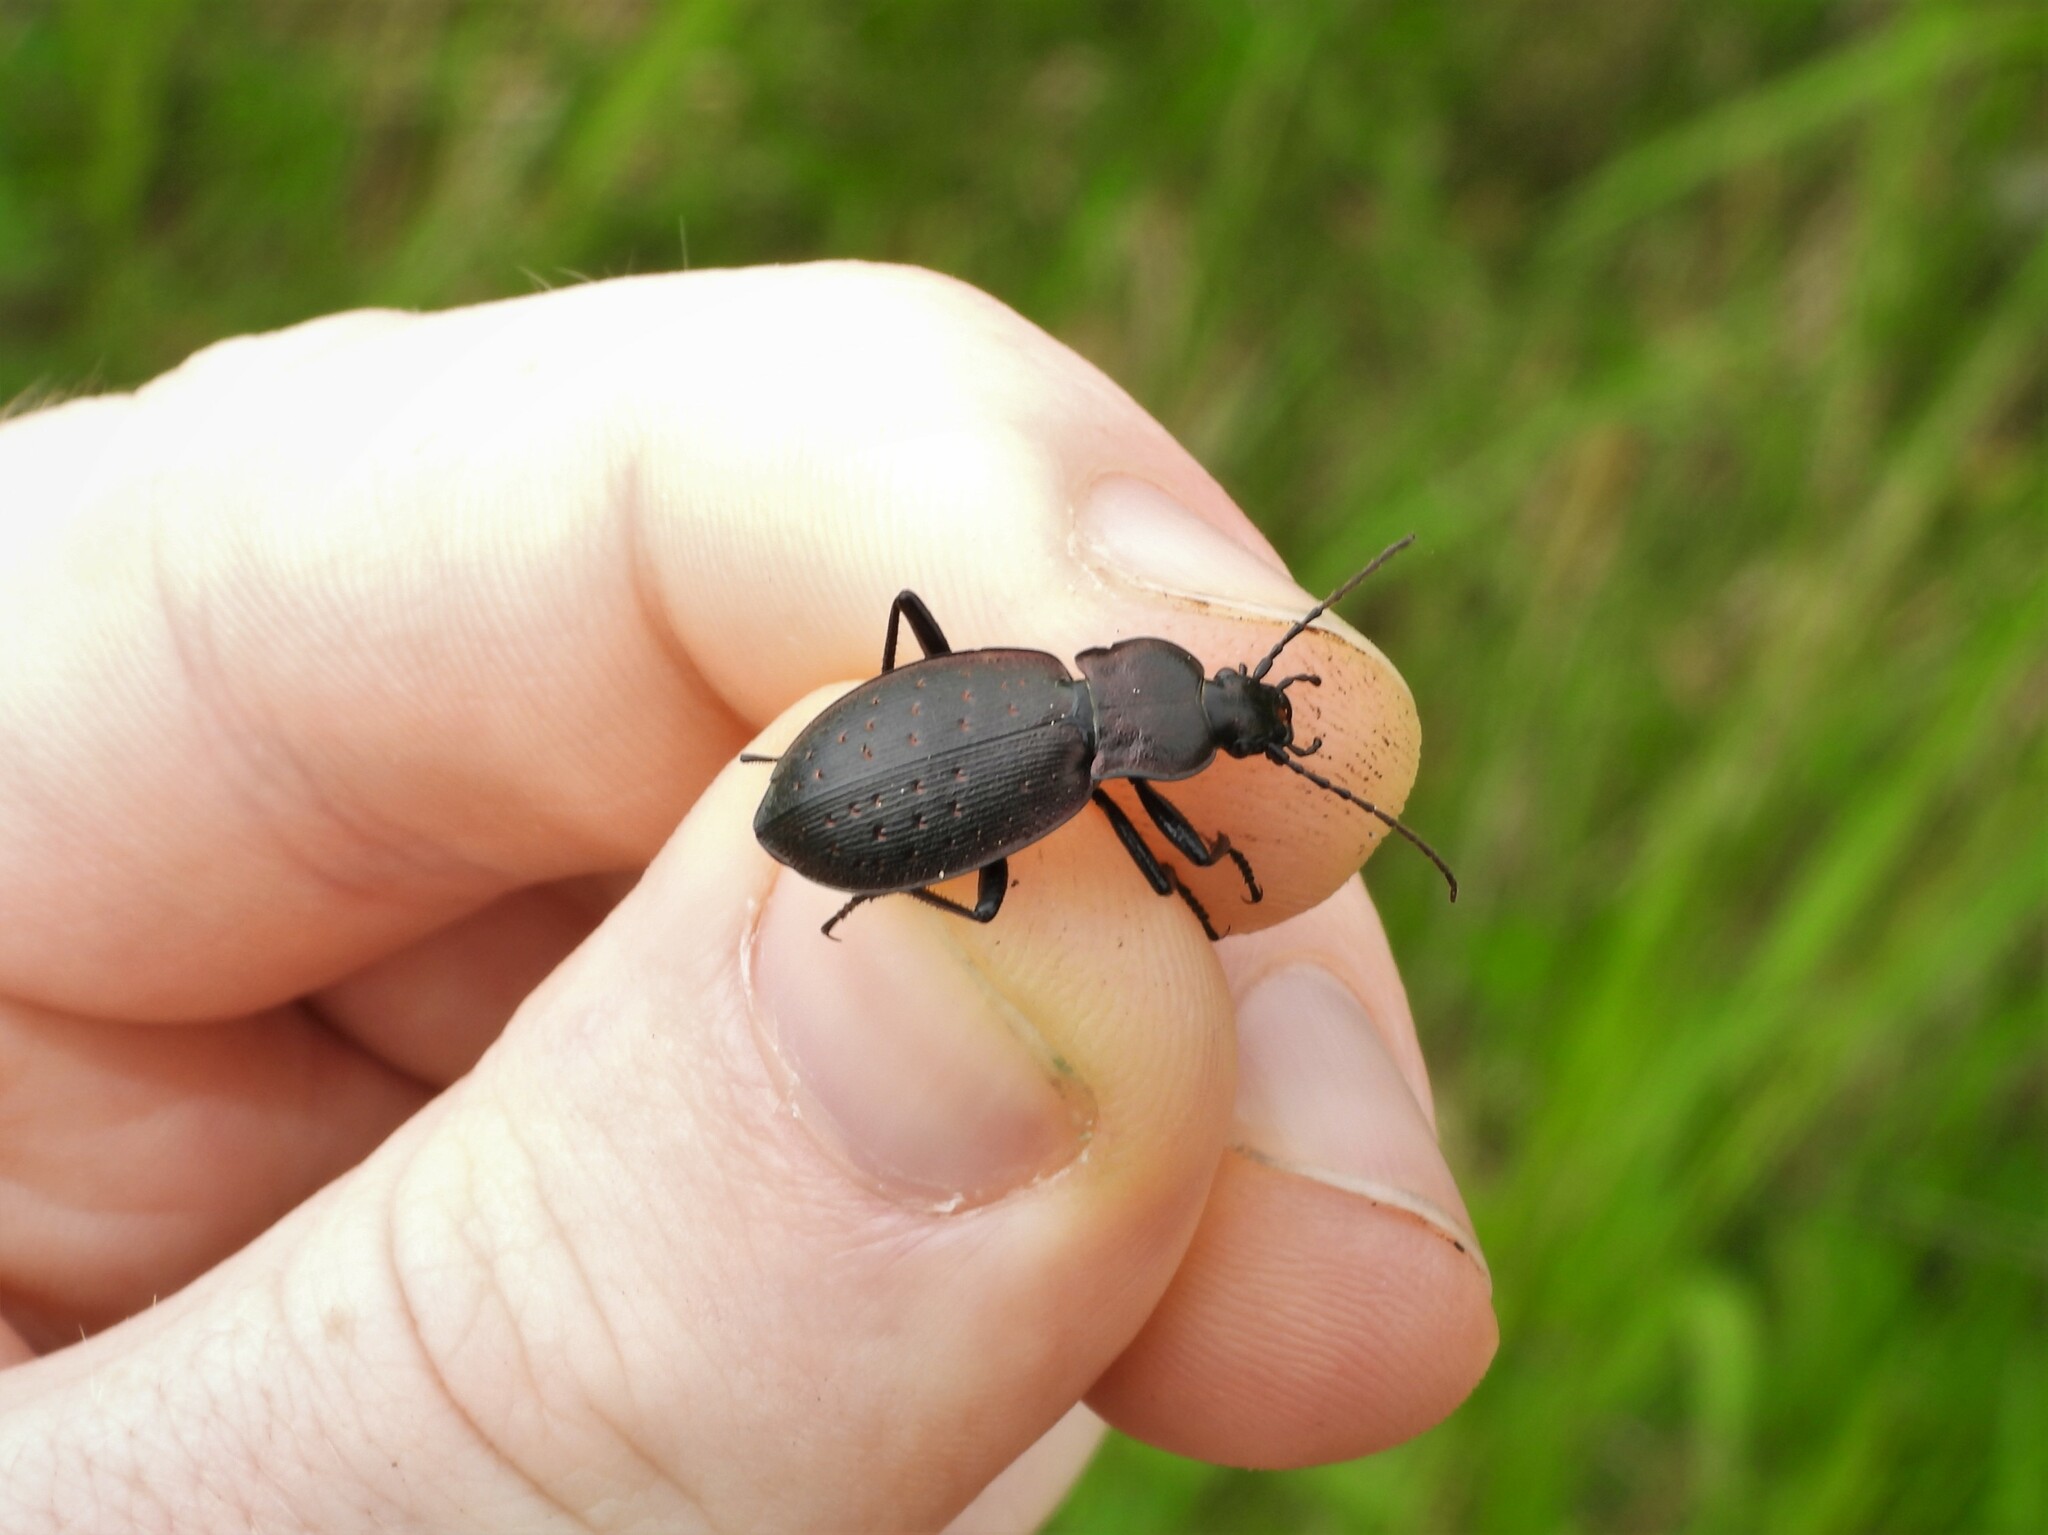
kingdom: Animalia
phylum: Arthropoda
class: Insecta
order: Coleoptera
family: Carabidae
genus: Carabus
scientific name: Carabus bremii
